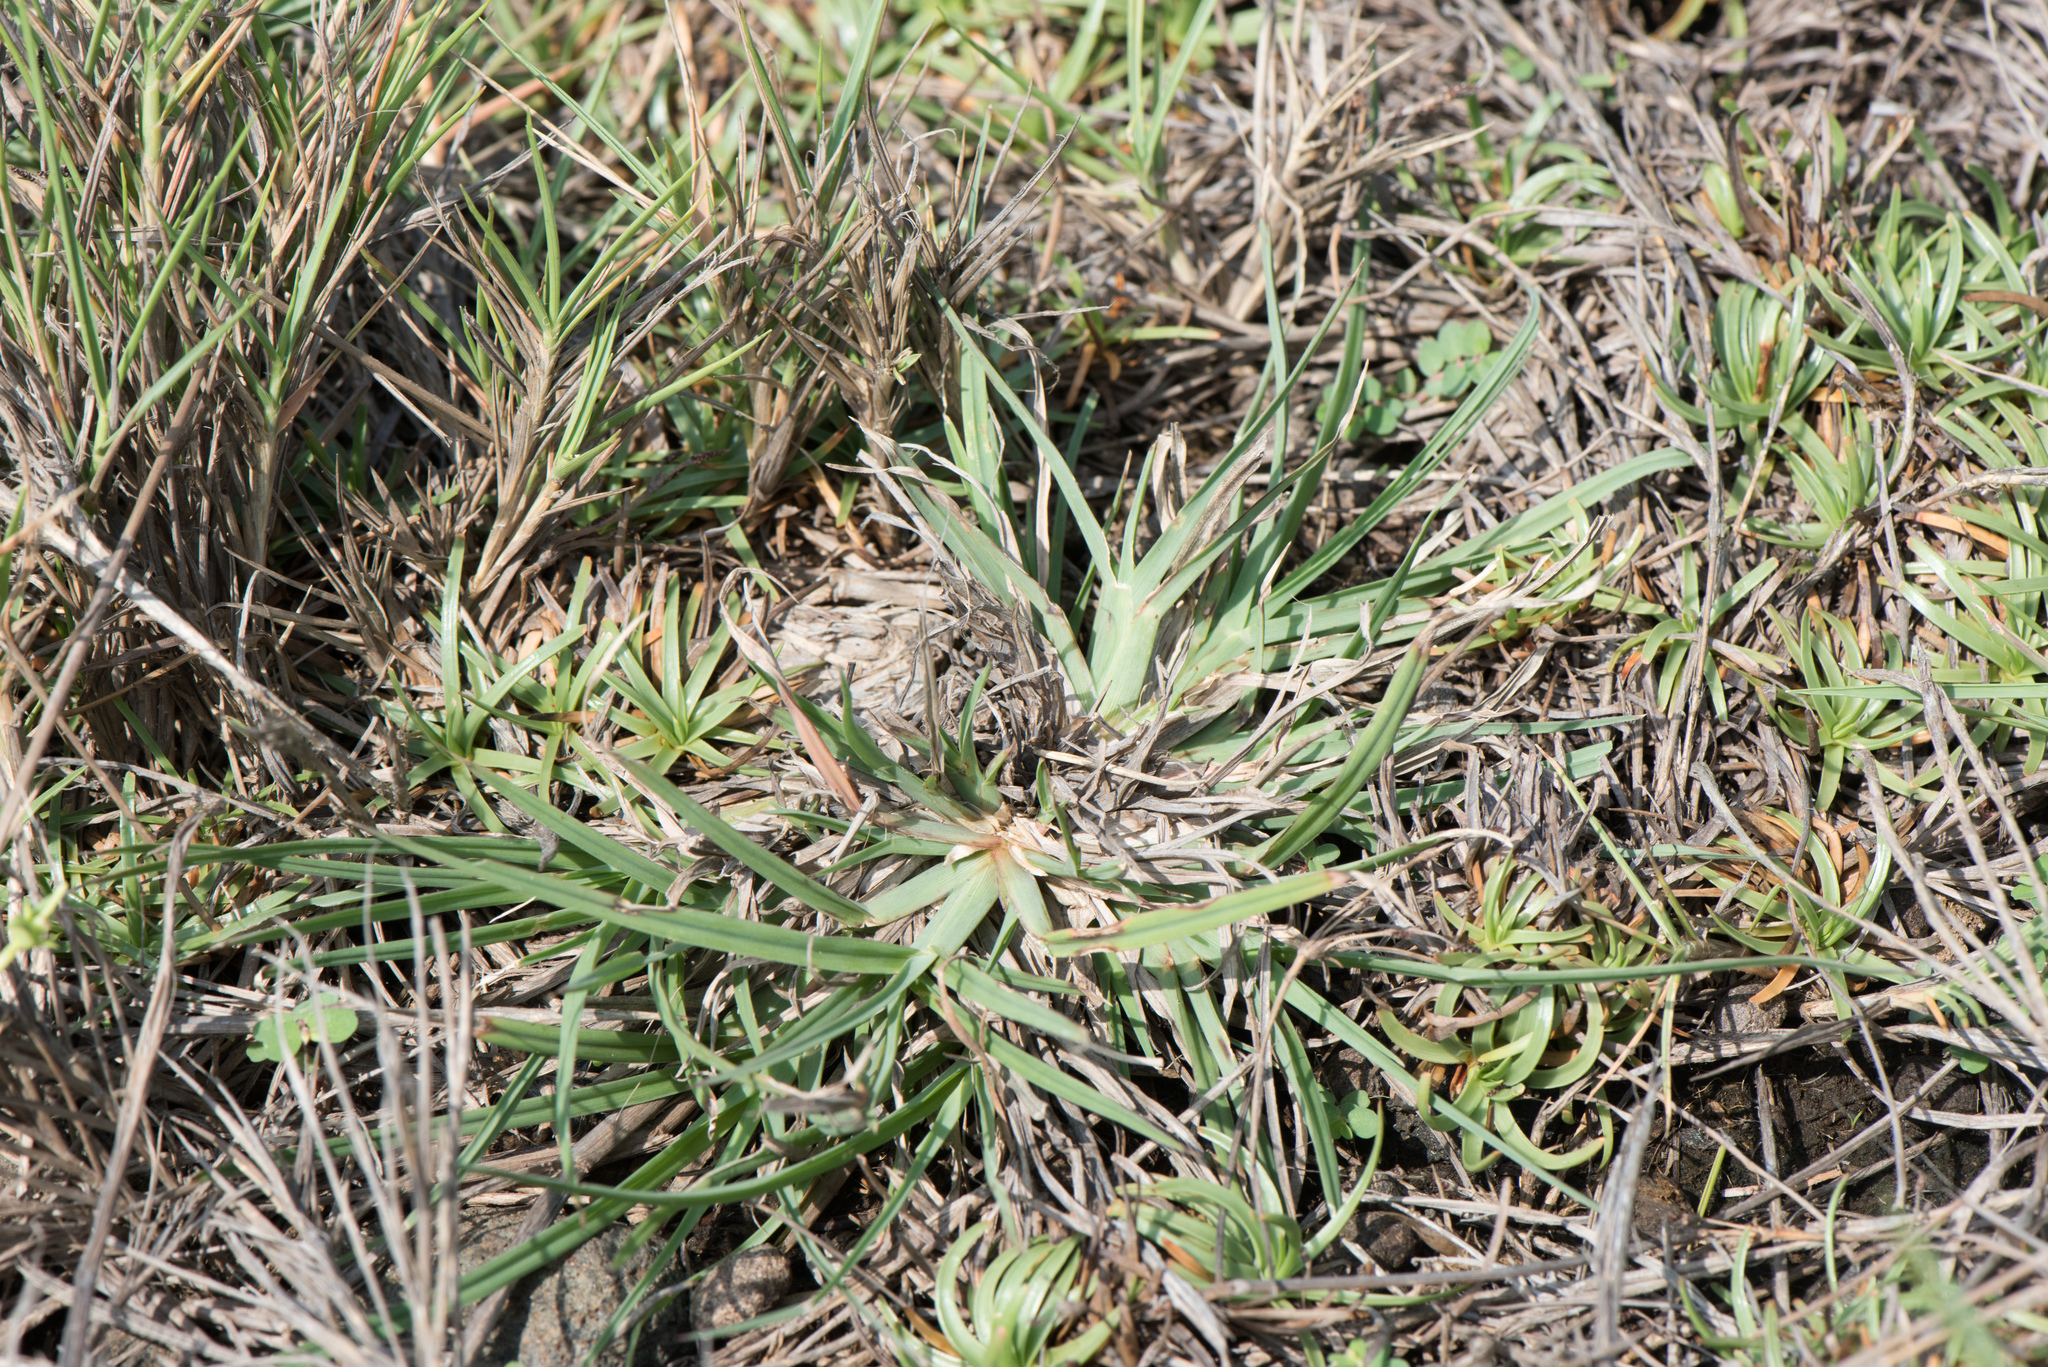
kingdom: Plantae
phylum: Tracheophyta
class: Liliopsida
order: Poales
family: Poaceae
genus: Chloris
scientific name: Chloris formosana
